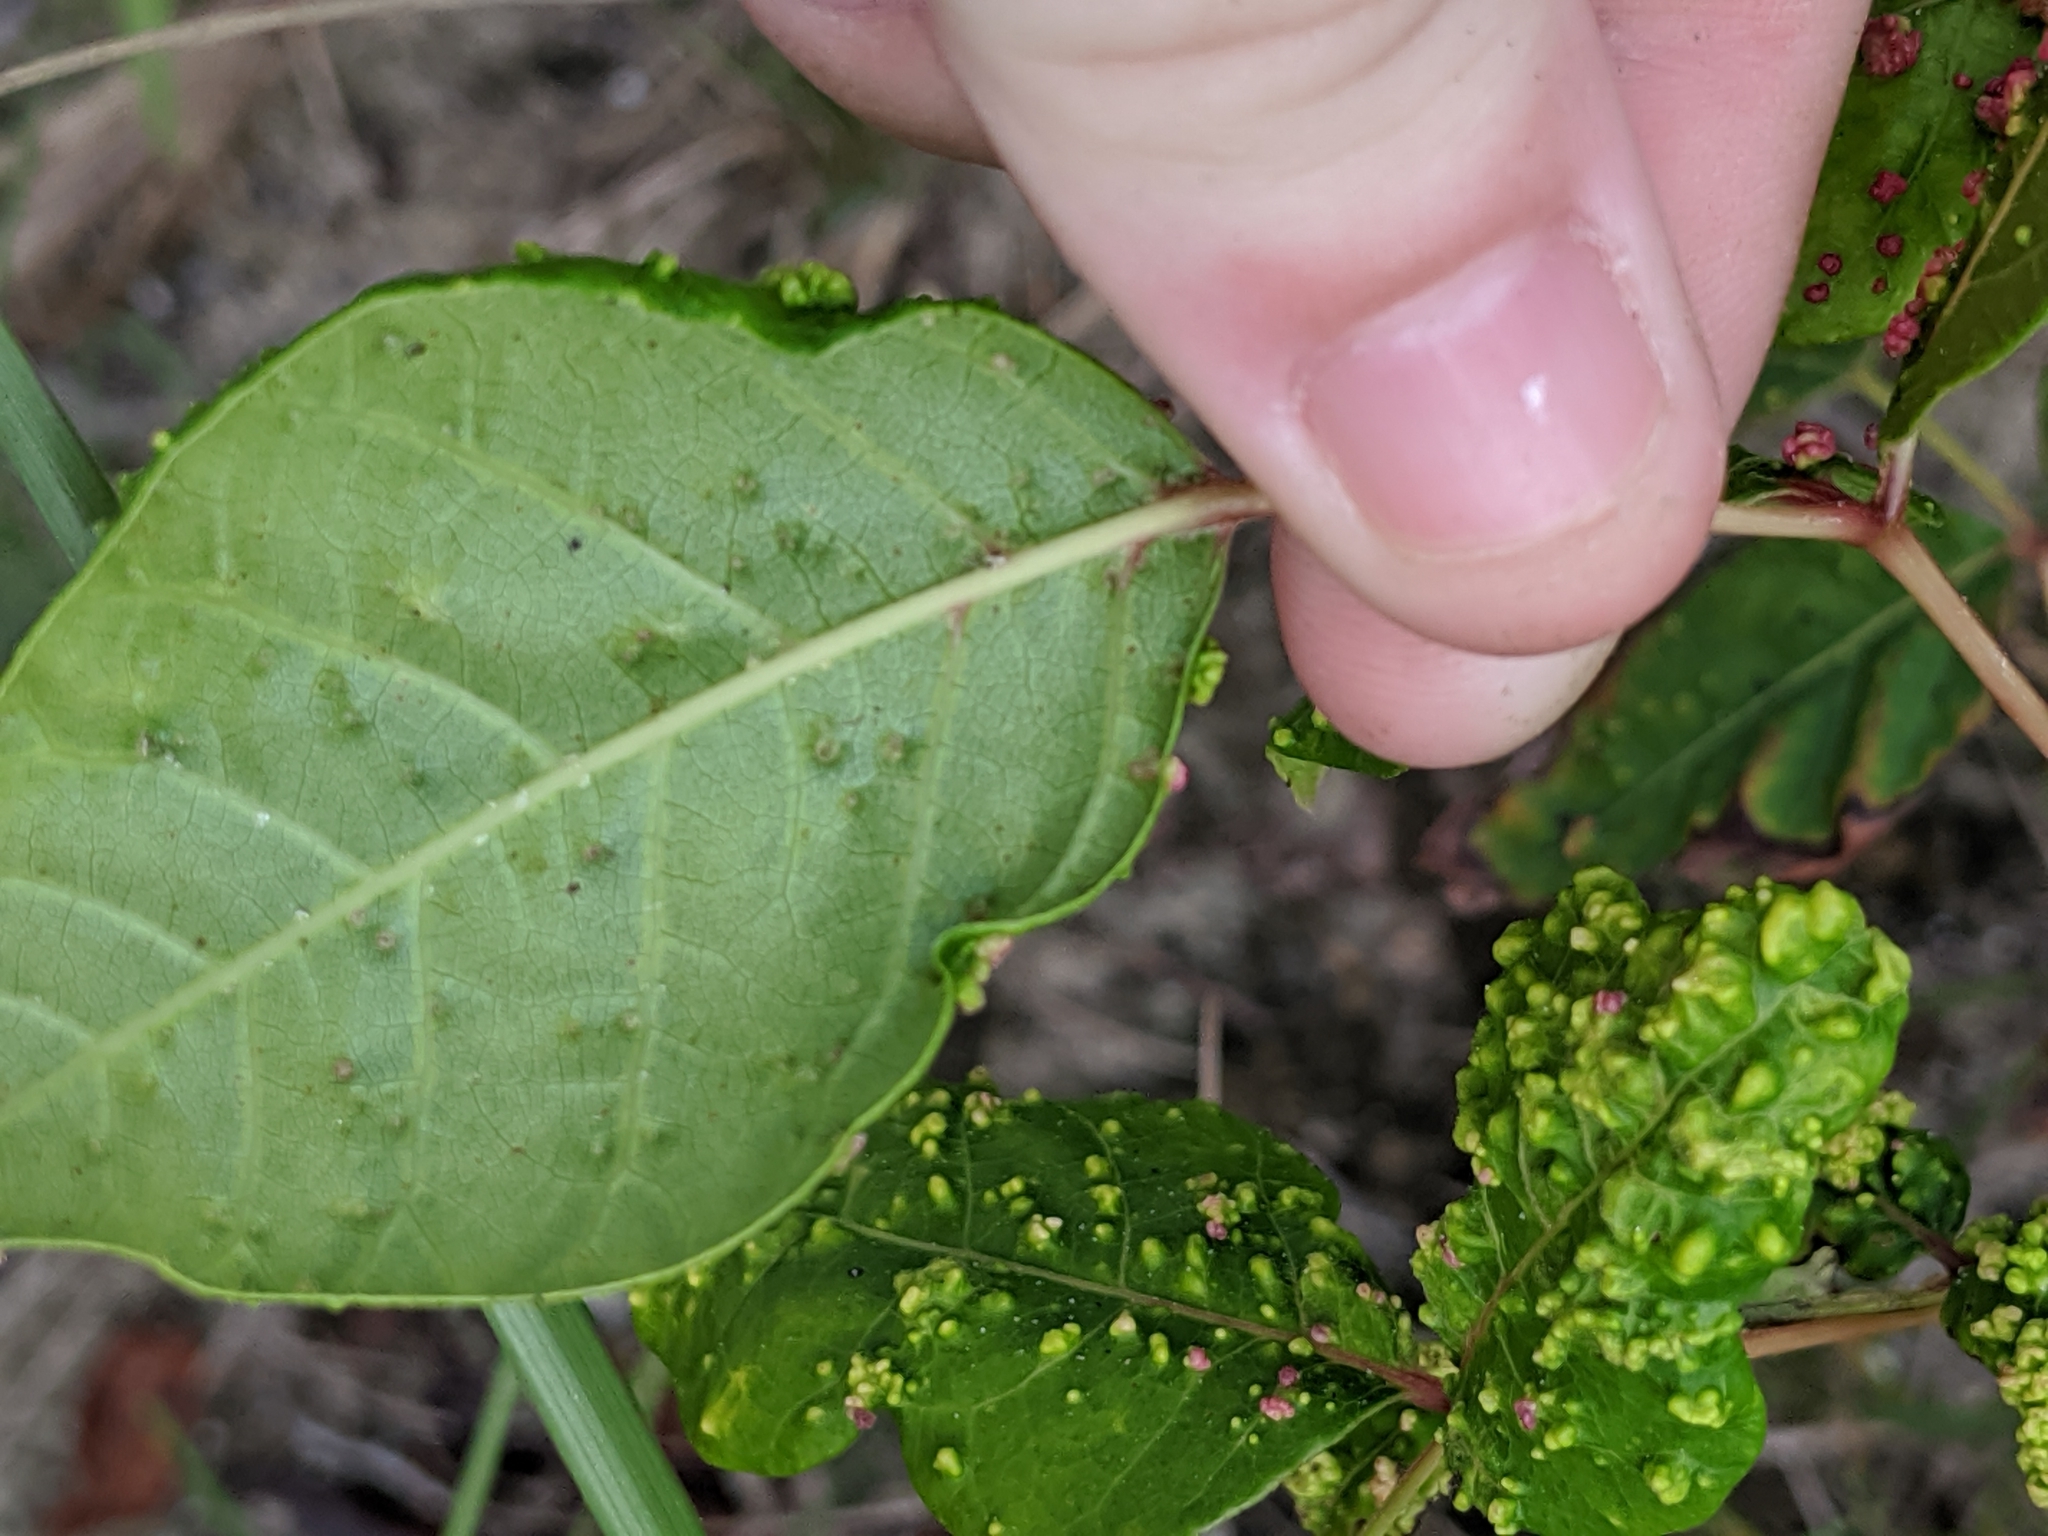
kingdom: Animalia
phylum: Arthropoda
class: Arachnida
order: Trombidiformes
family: Eriophyidae
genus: Aculops
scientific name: Aculops
